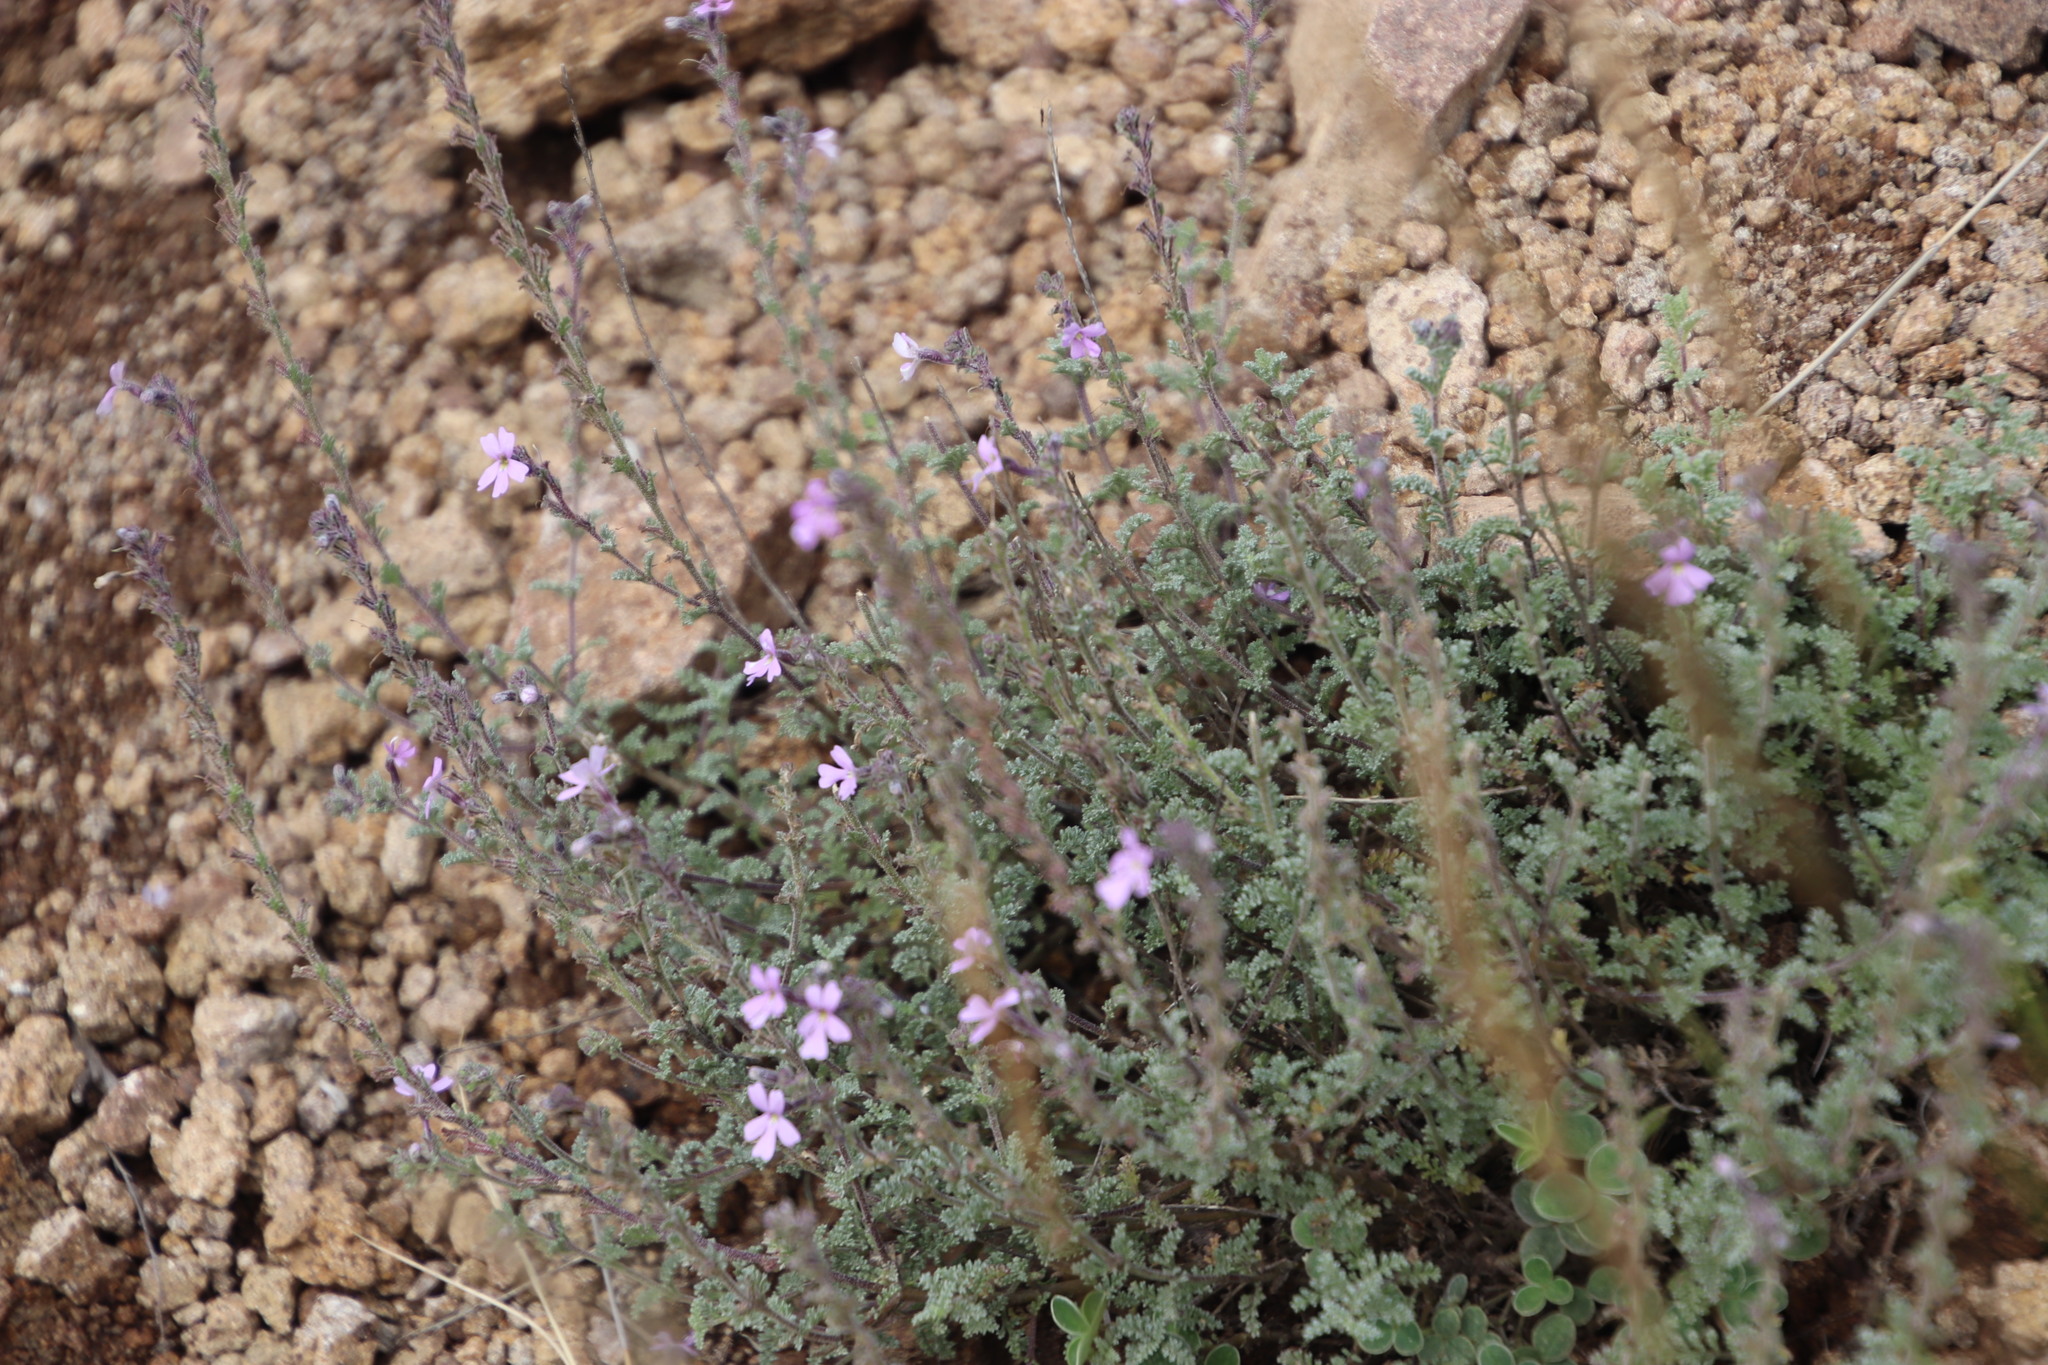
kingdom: Plantae
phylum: Tracheophyta
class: Magnoliopsida
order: Lamiales
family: Scrophulariaceae
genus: Jamesbrittenia
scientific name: Jamesbrittenia pristisepala
